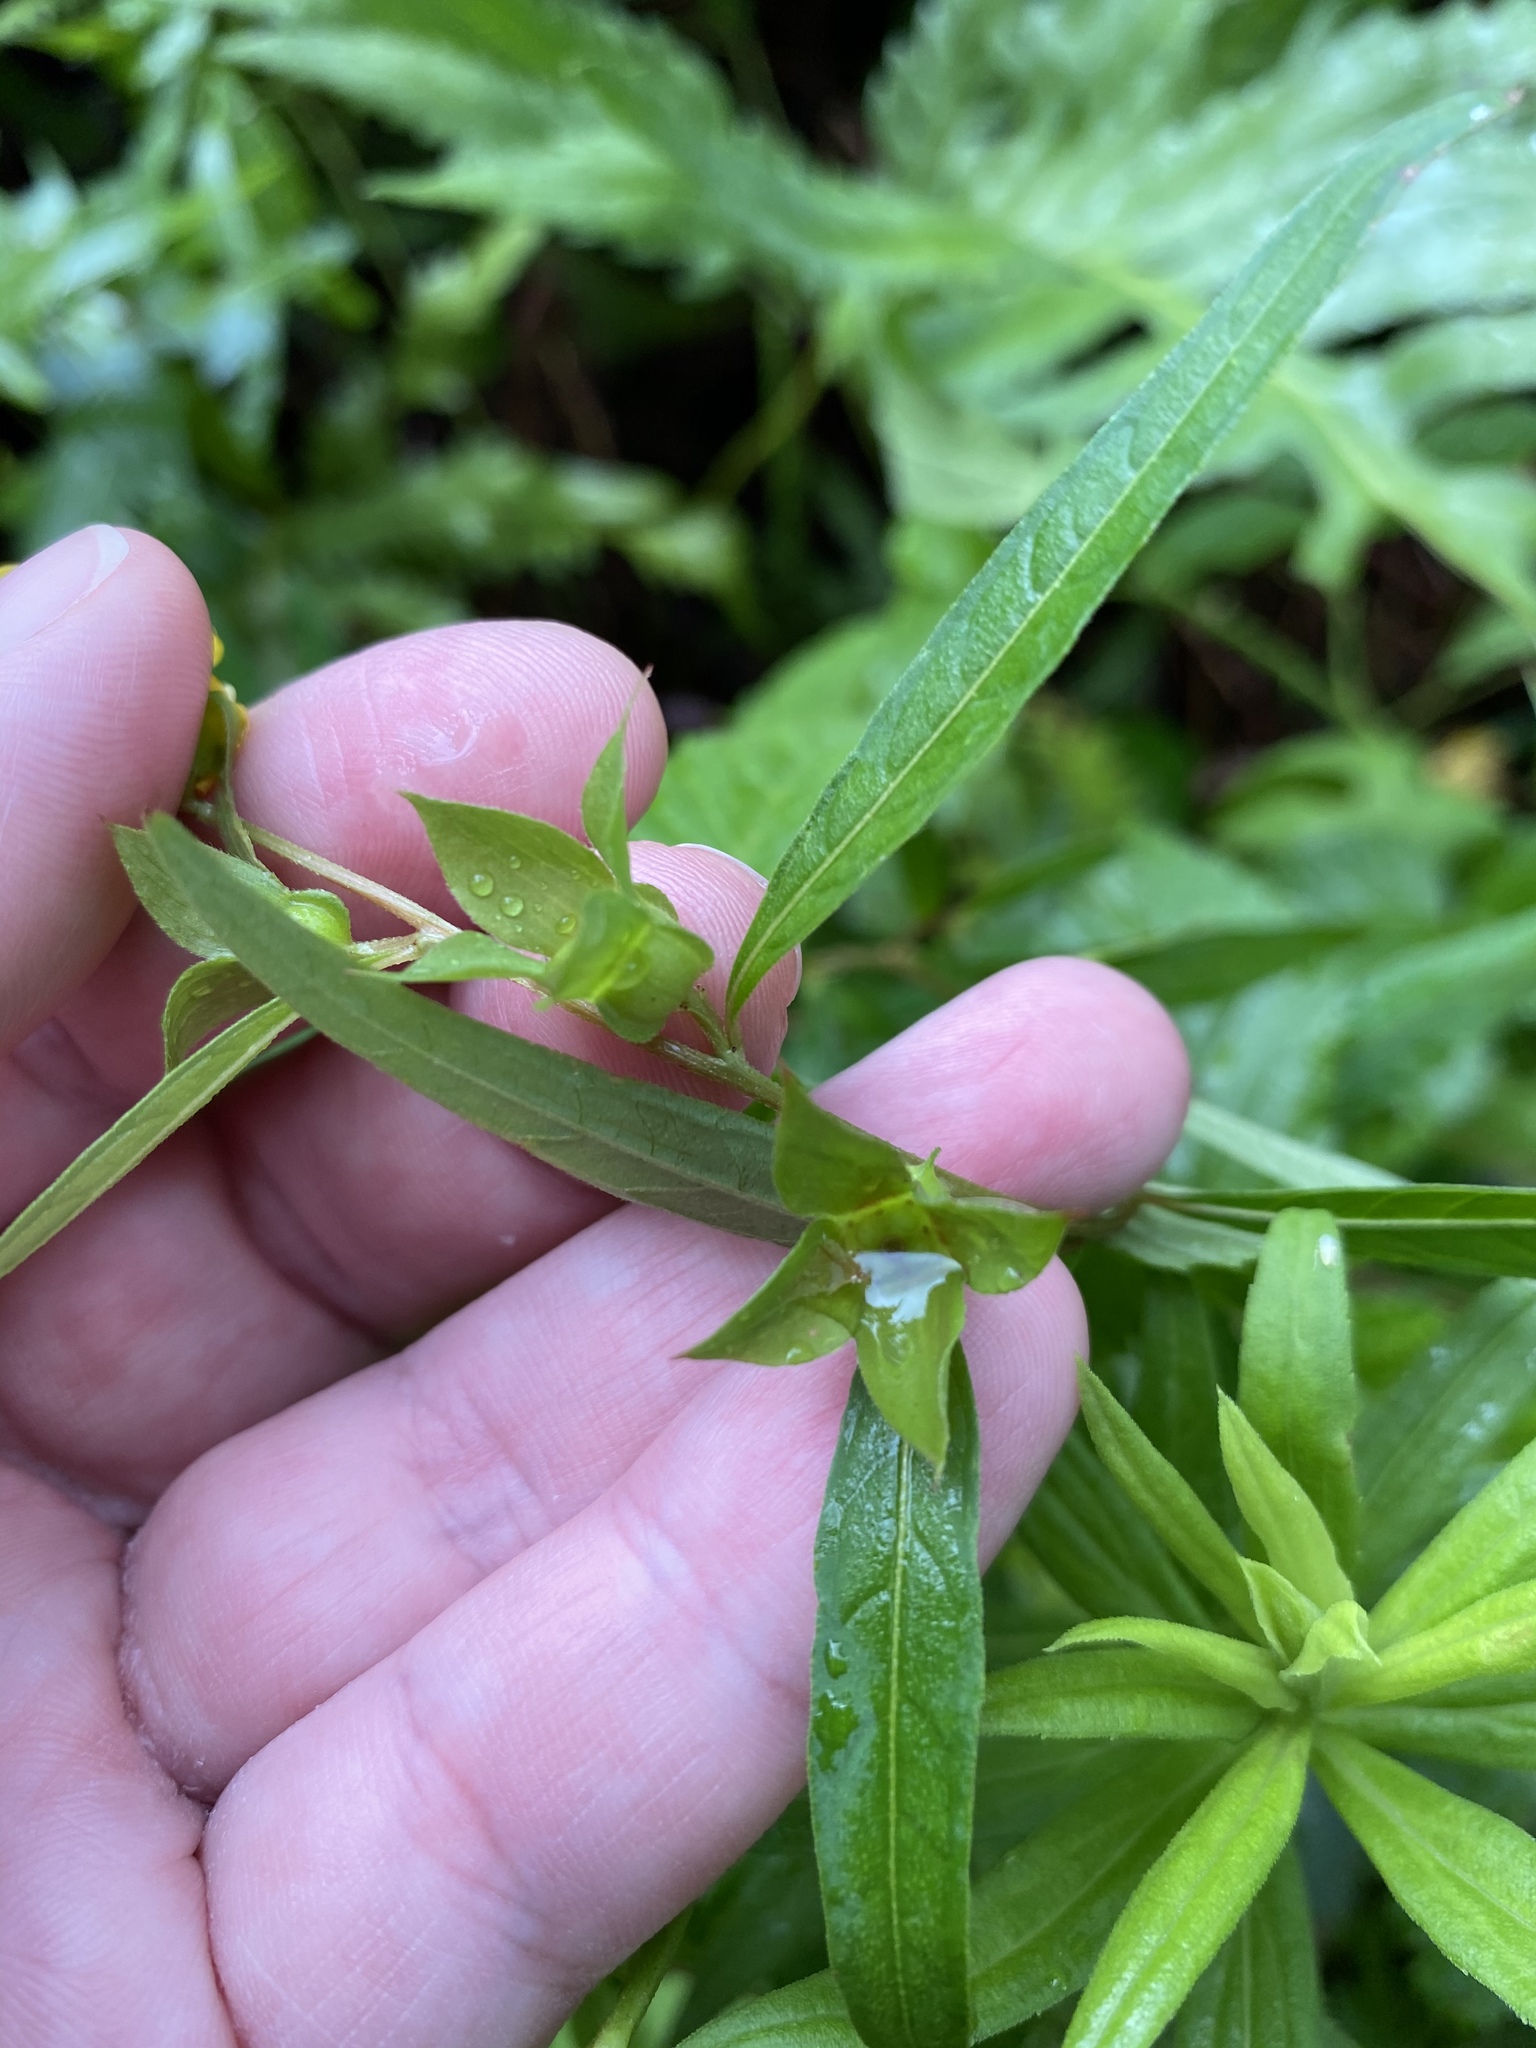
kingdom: Plantae
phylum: Tracheophyta
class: Magnoliopsida
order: Myrtales
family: Onagraceae
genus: Ludwigia
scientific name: Ludwigia alternifolia
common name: Rattlebox
